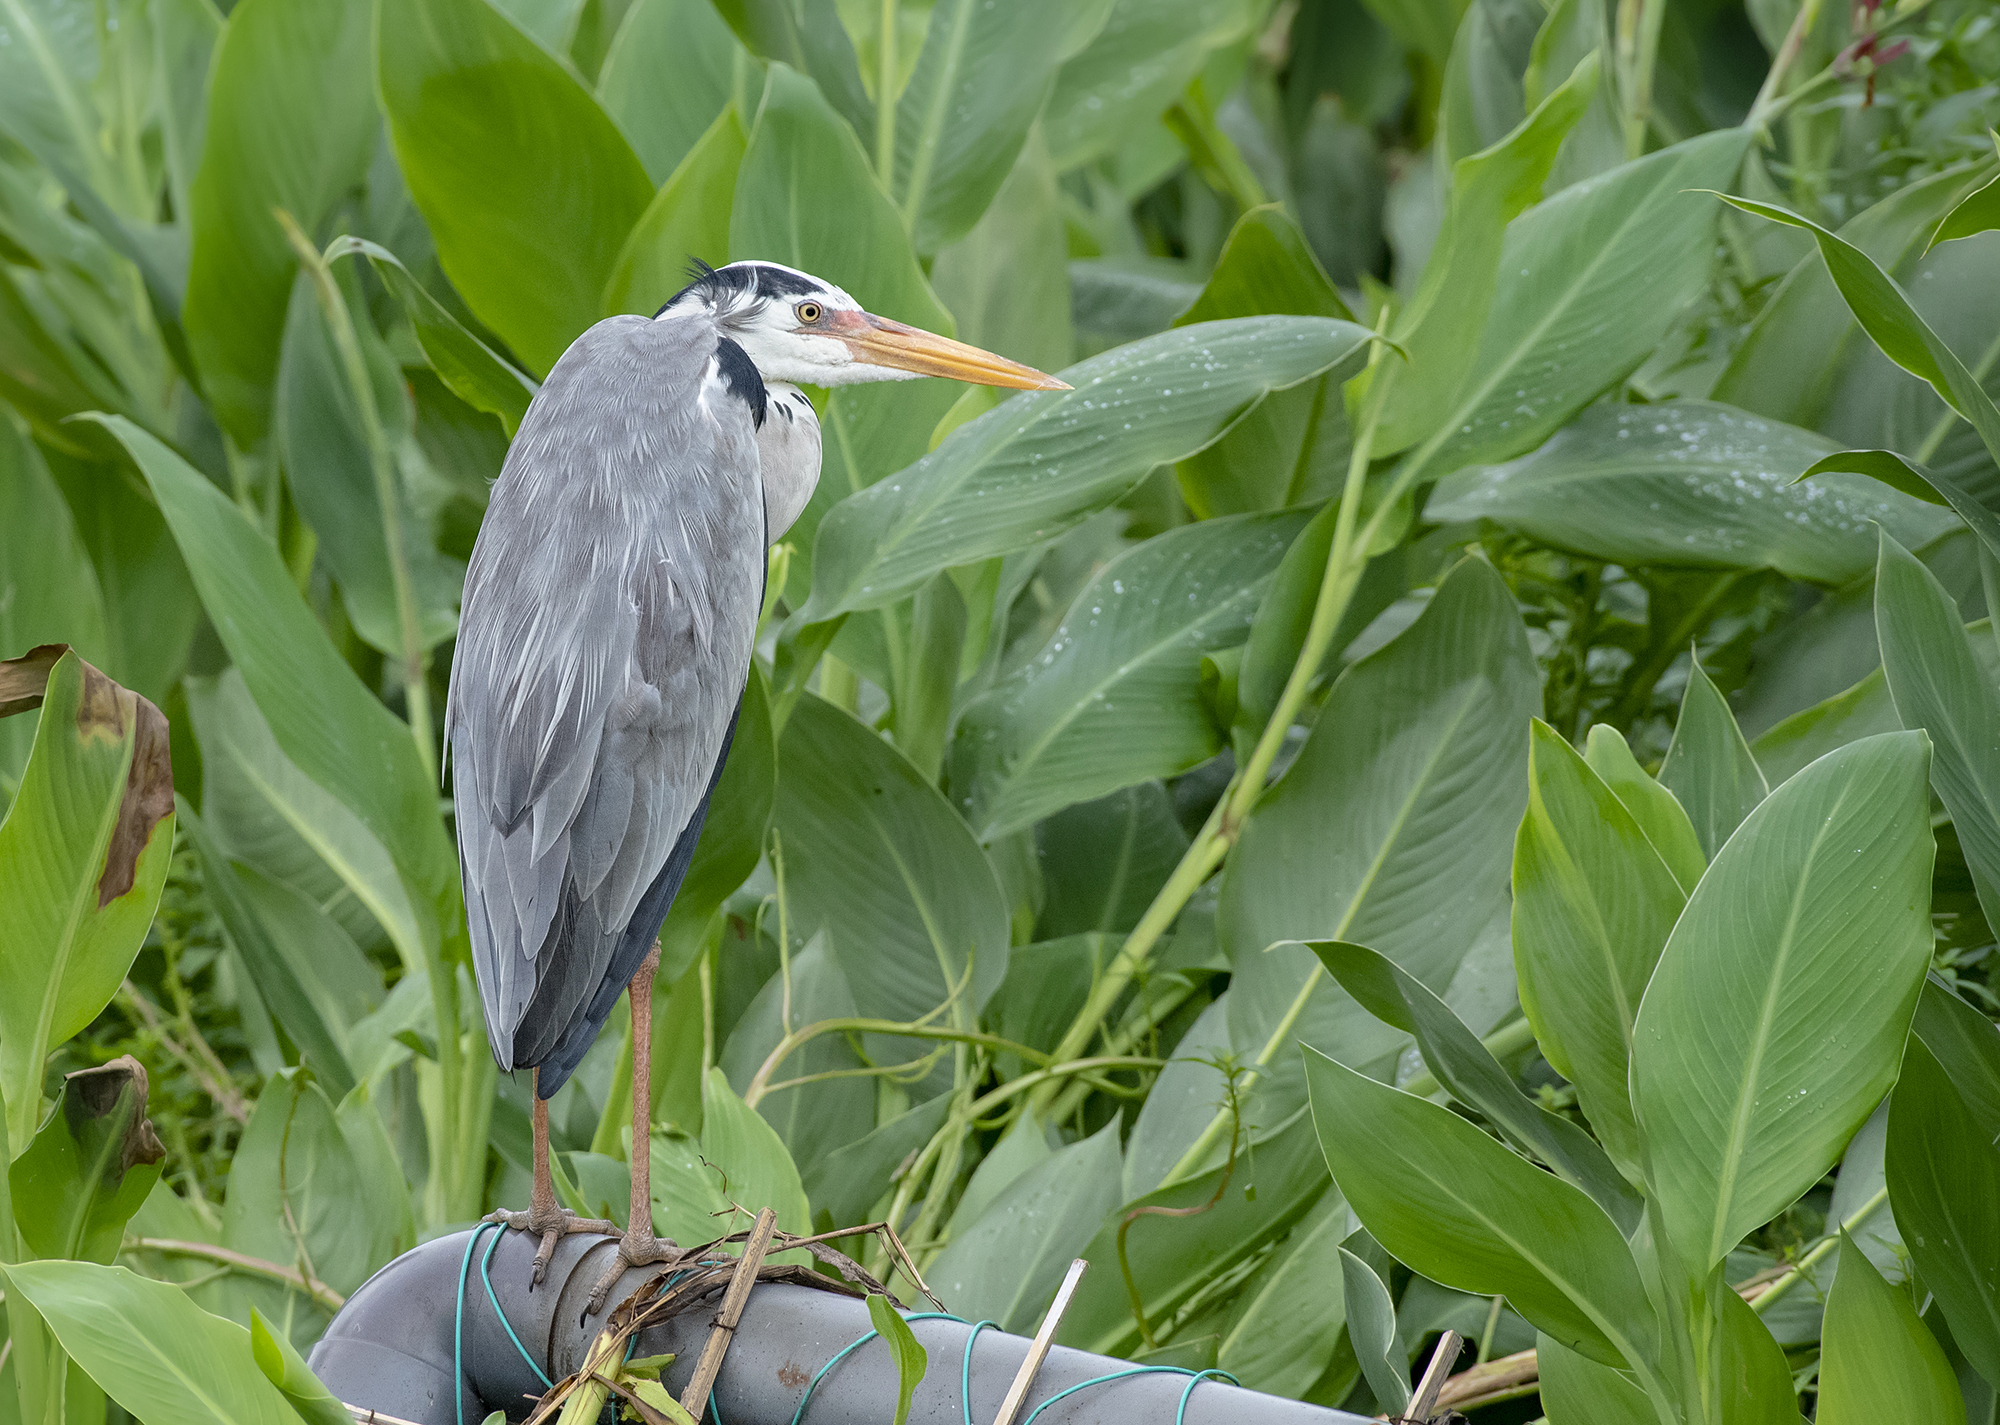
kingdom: Animalia
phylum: Chordata
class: Aves
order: Pelecaniformes
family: Ardeidae
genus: Ardea
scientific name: Ardea cinerea
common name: Grey heron
